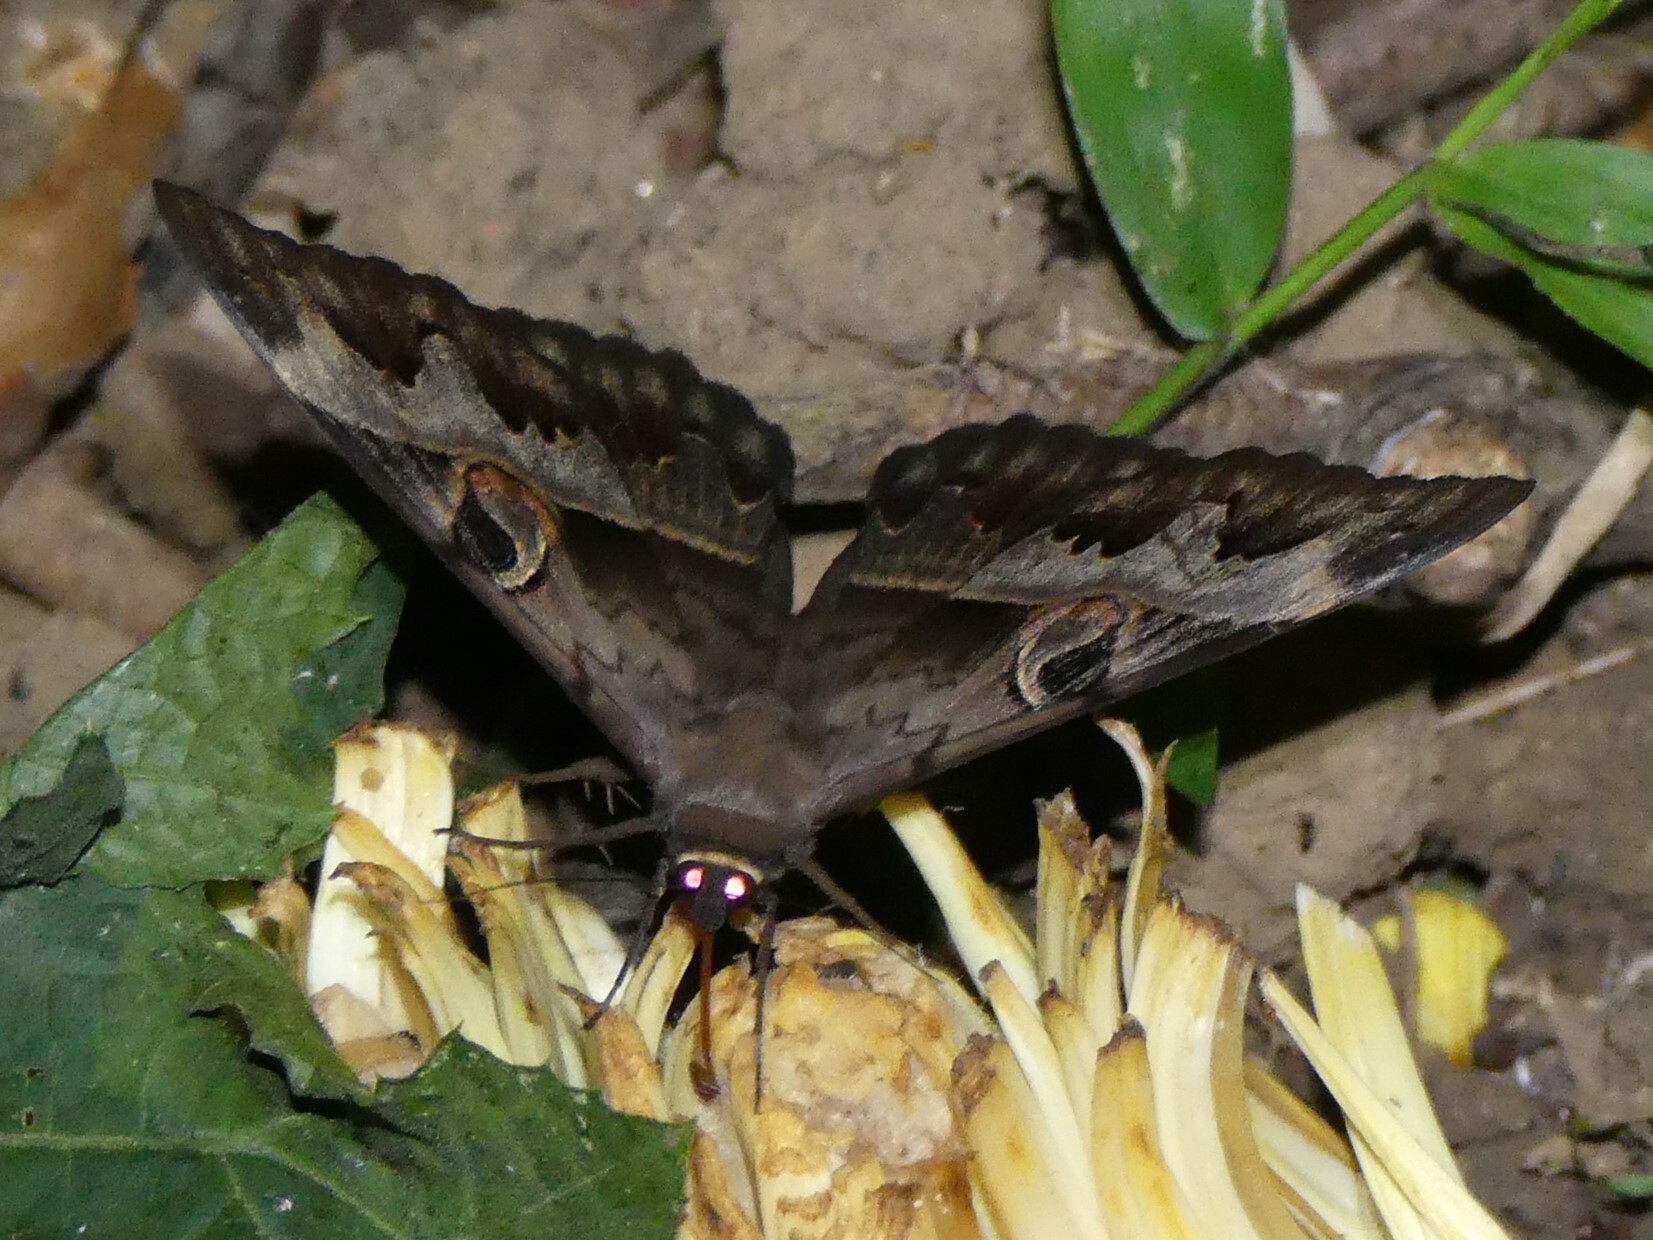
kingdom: Animalia
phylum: Arthropoda
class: Insecta
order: Lepidoptera
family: Erebidae
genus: Cyligramma
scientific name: Cyligramma fluctuosa
